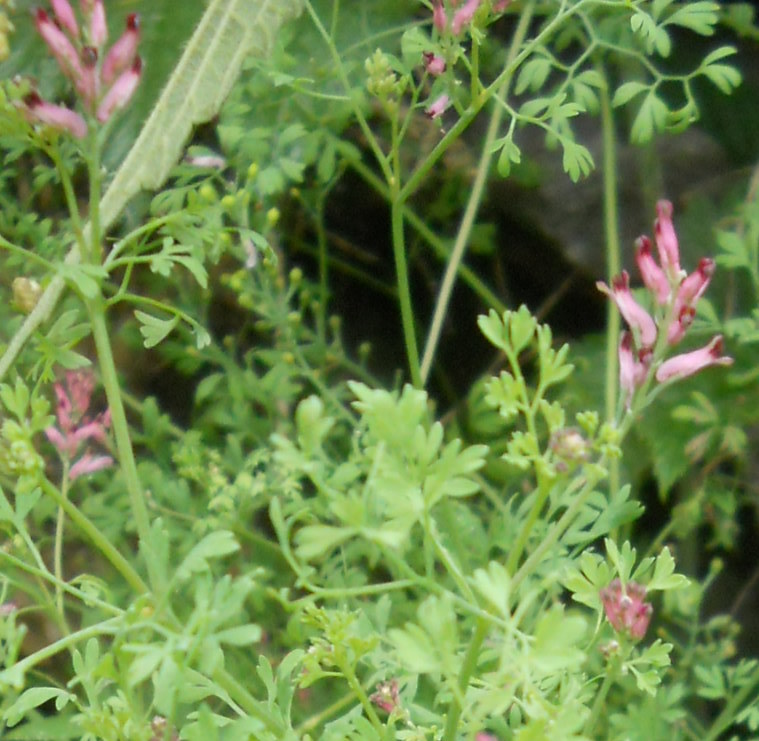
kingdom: Plantae
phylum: Tracheophyta
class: Magnoliopsida
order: Ranunculales
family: Papaveraceae
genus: Fumaria
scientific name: Fumaria schleicheri
